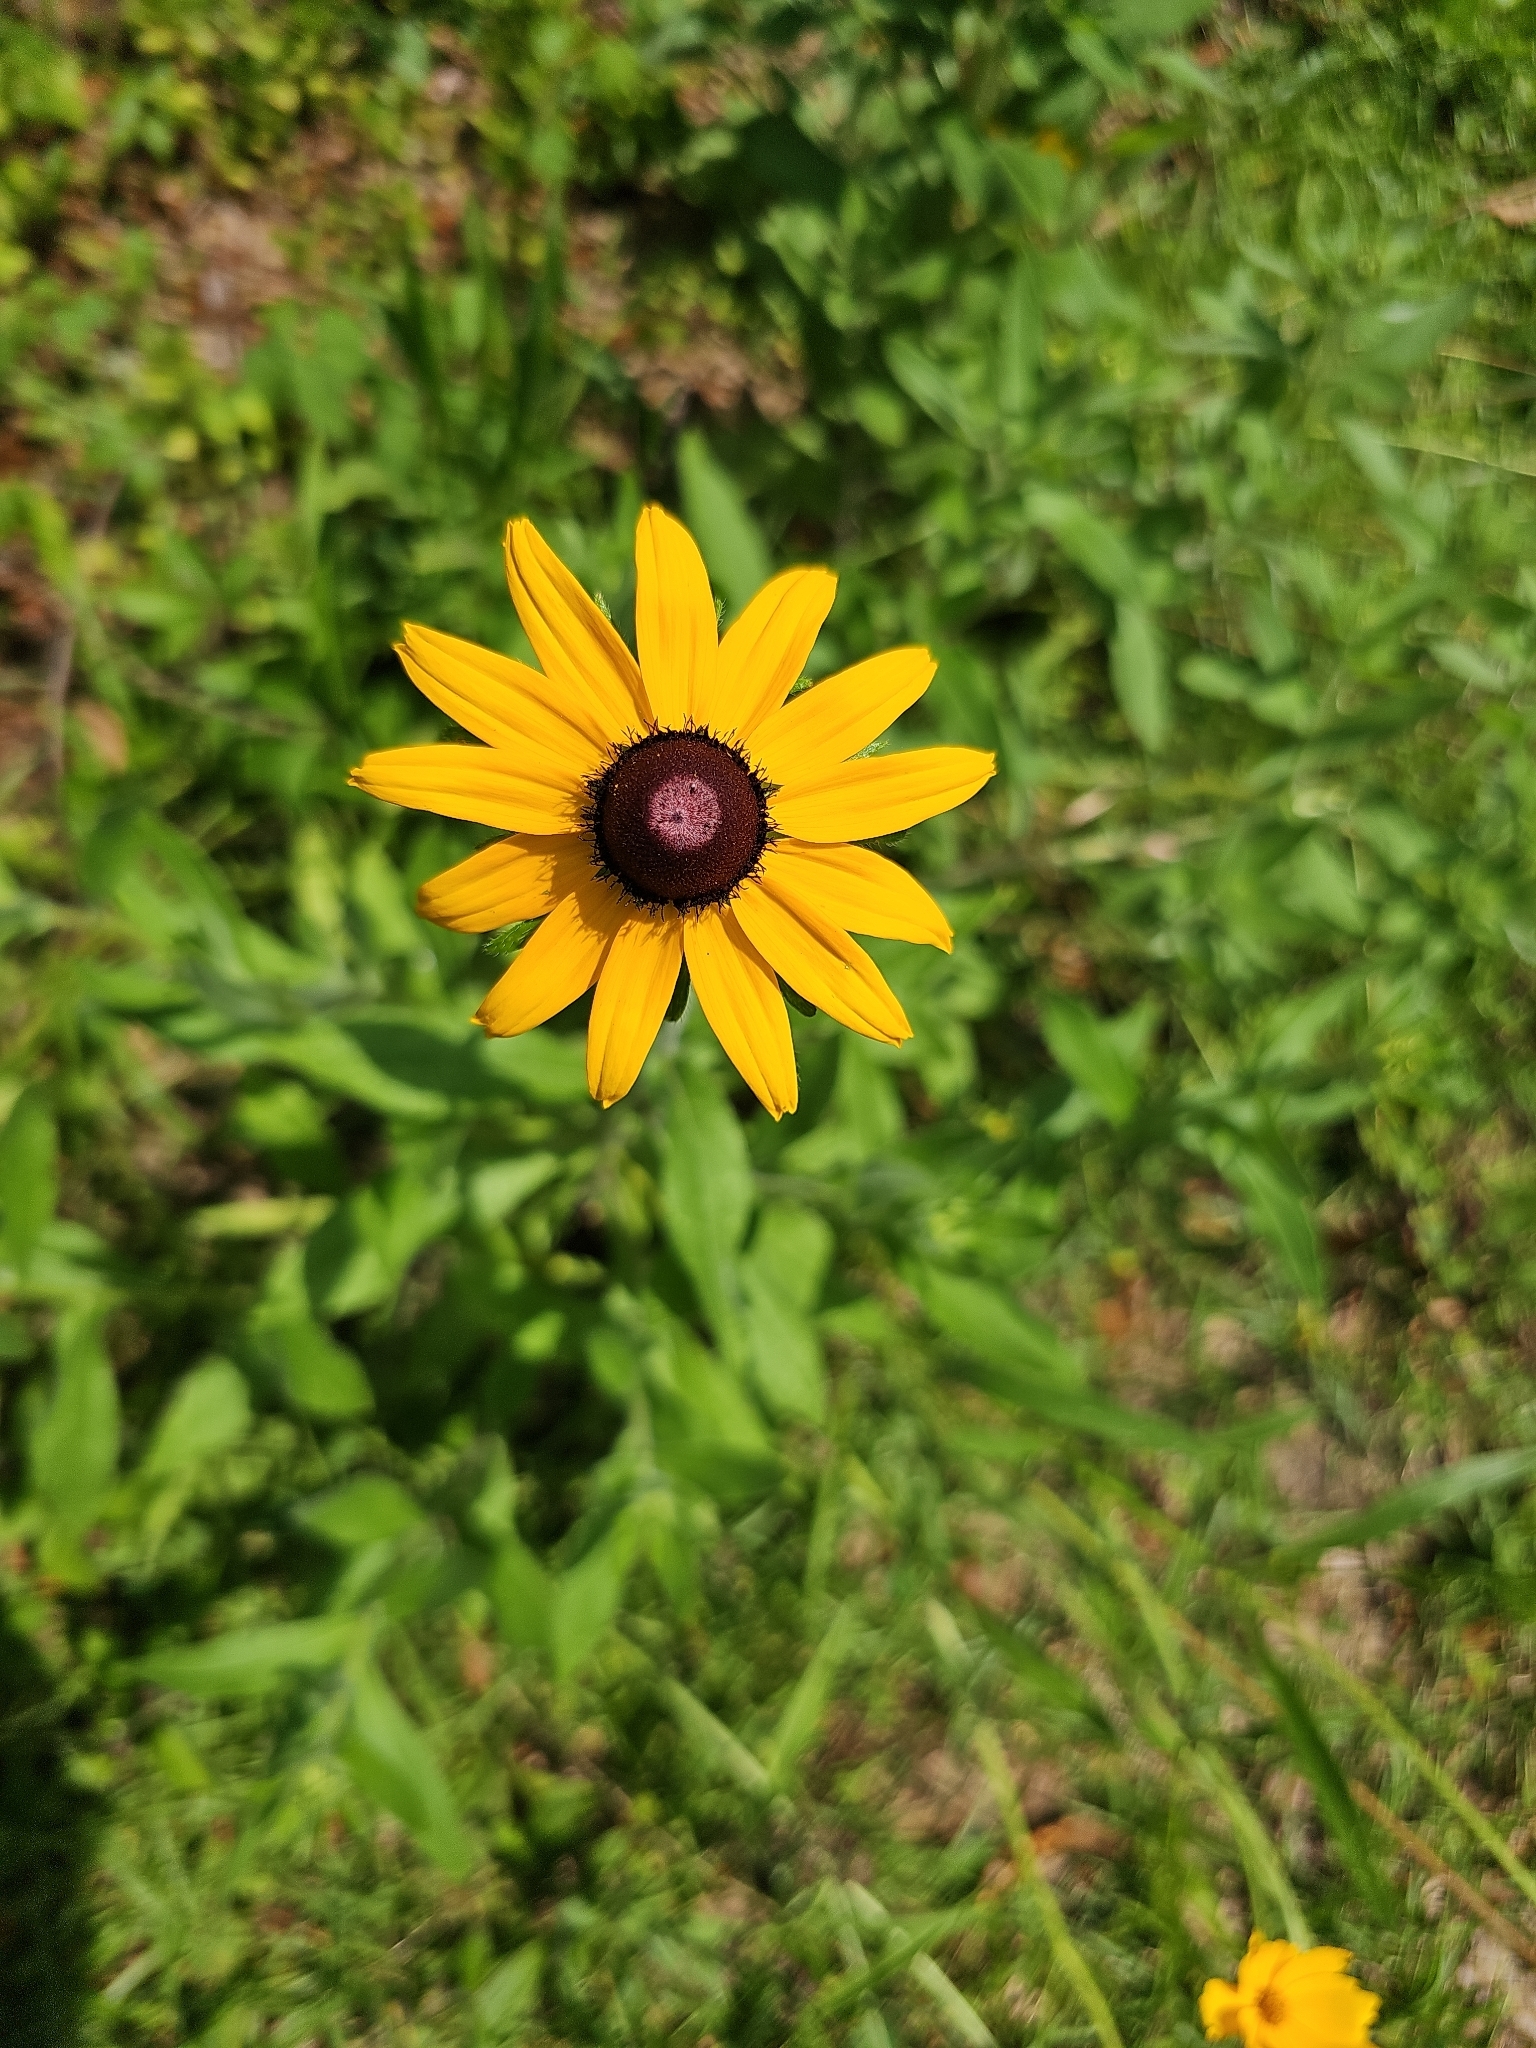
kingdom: Plantae
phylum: Tracheophyta
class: Magnoliopsida
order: Asterales
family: Asteraceae
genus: Rudbeckia
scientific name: Rudbeckia hirta
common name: Black-eyed-susan
